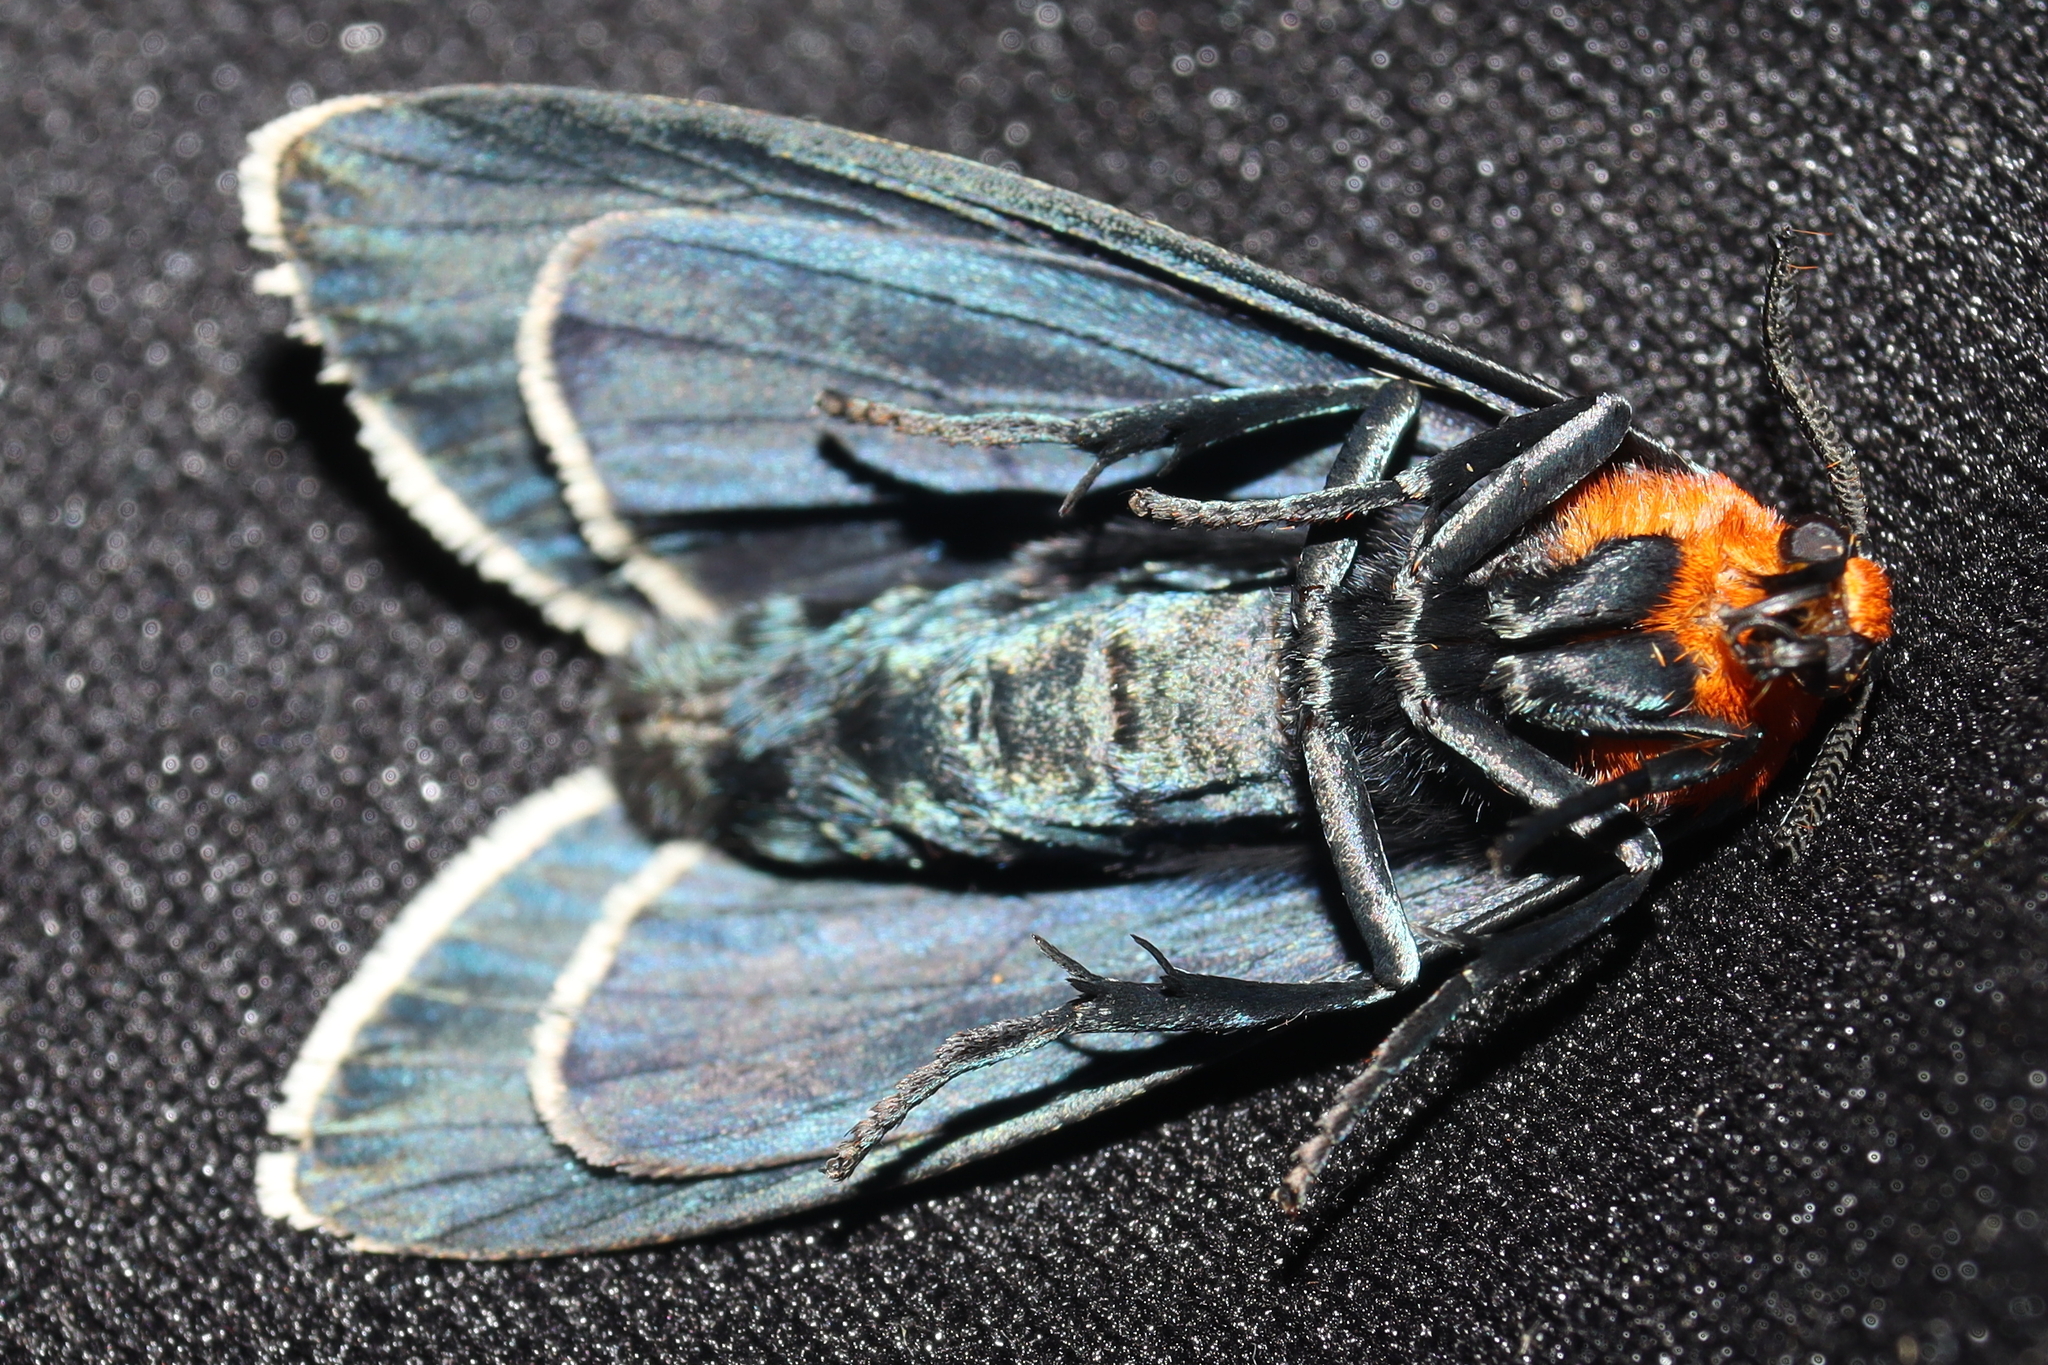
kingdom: Animalia
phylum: Arthropoda
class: Insecta
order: Lepidoptera
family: Erebidae
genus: Apistosia
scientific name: Apistosia judas
